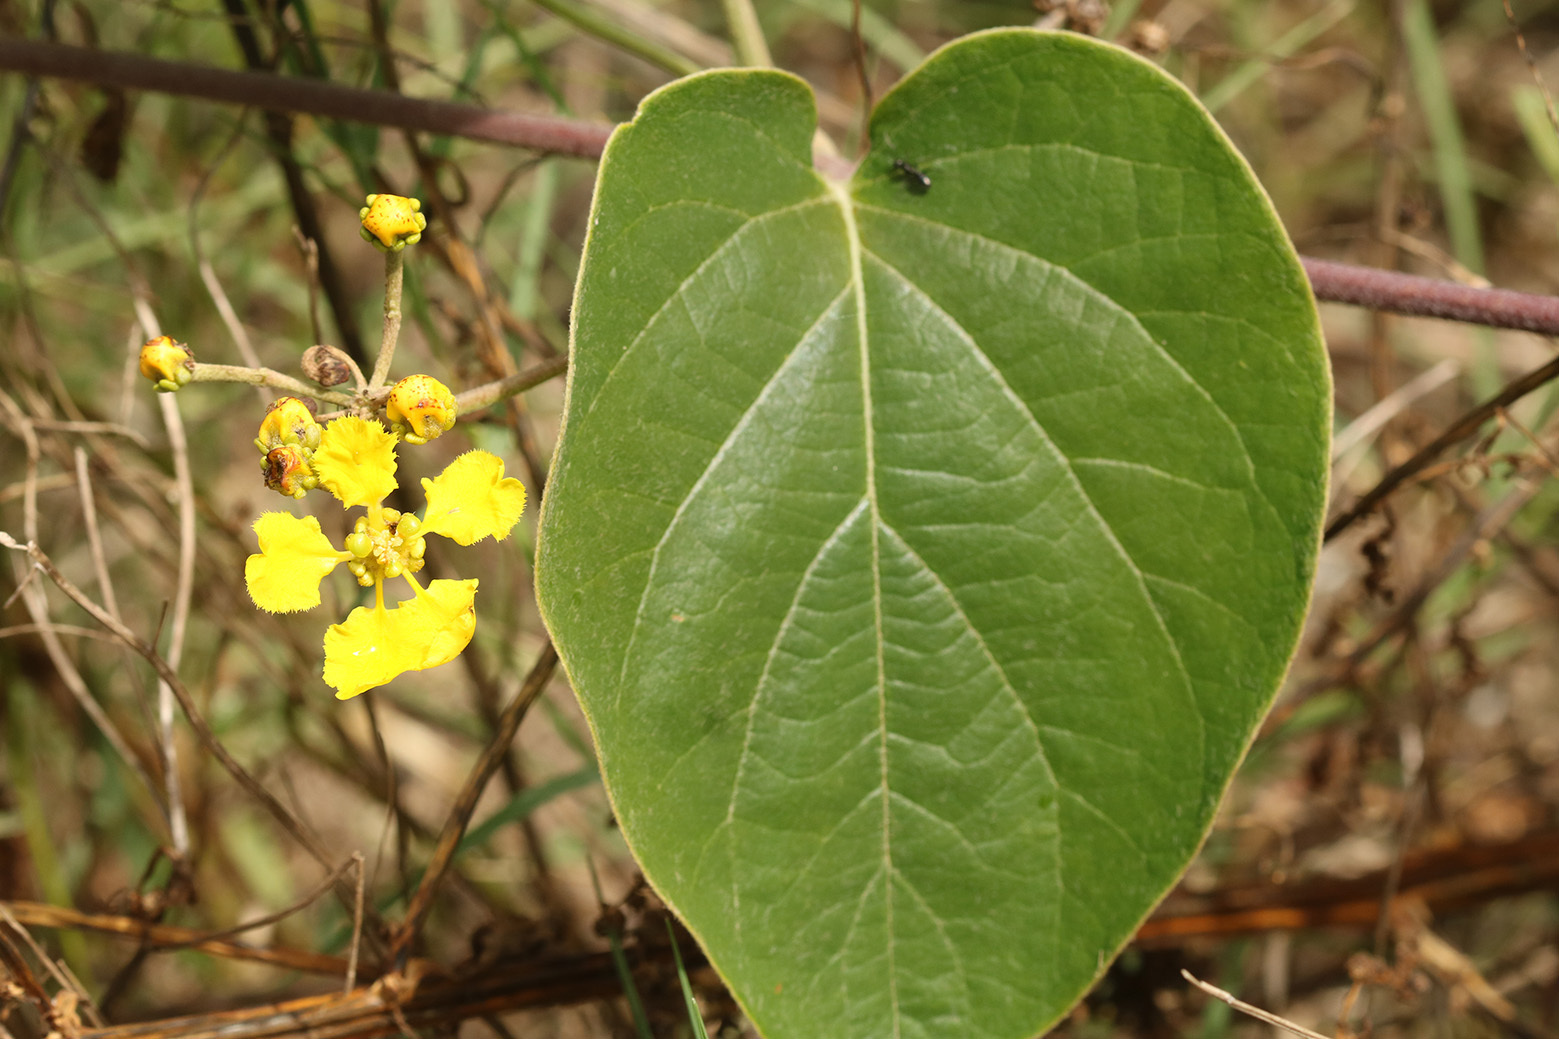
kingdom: Plantae
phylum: Tracheophyta
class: Magnoliopsida
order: Malpighiales
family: Malpighiaceae
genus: Stigmaphyllon
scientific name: Stigmaphyllon bonariense
